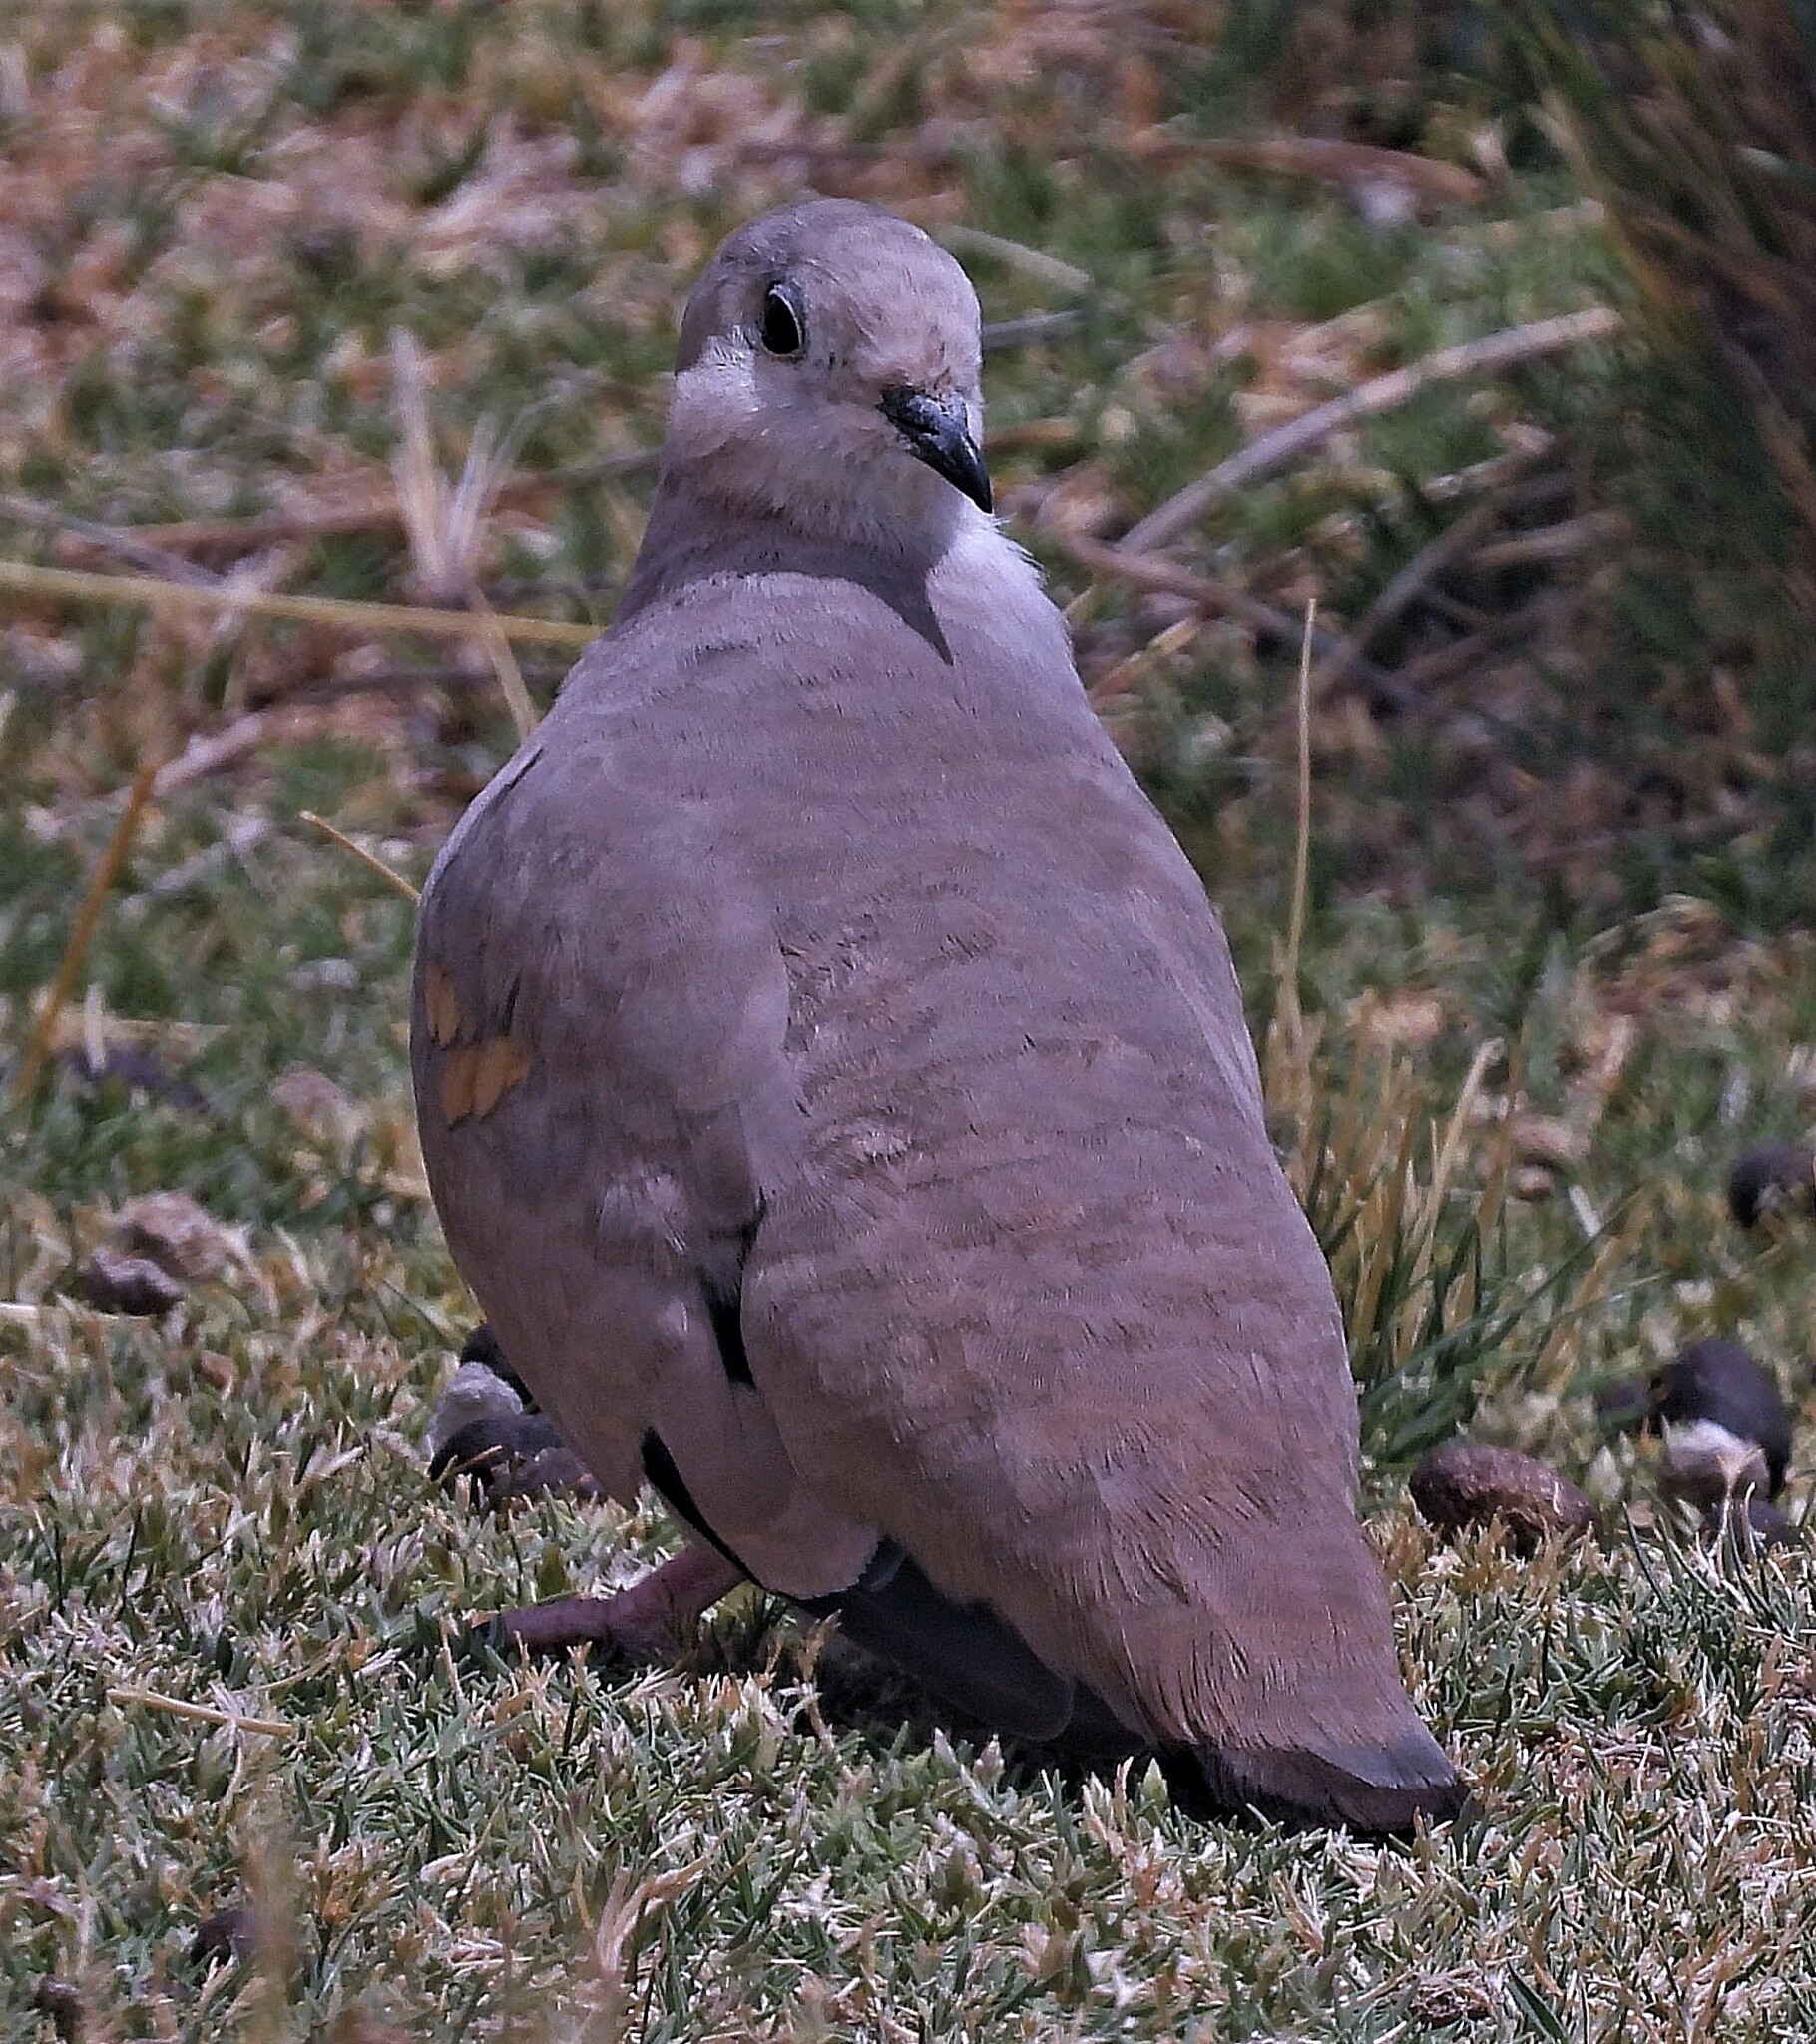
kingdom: Animalia
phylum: Chordata
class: Aves
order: Columbiformes
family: Columbidae
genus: Metriopelia
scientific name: Metriopelia aymara
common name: Golden-spotted ground dove
